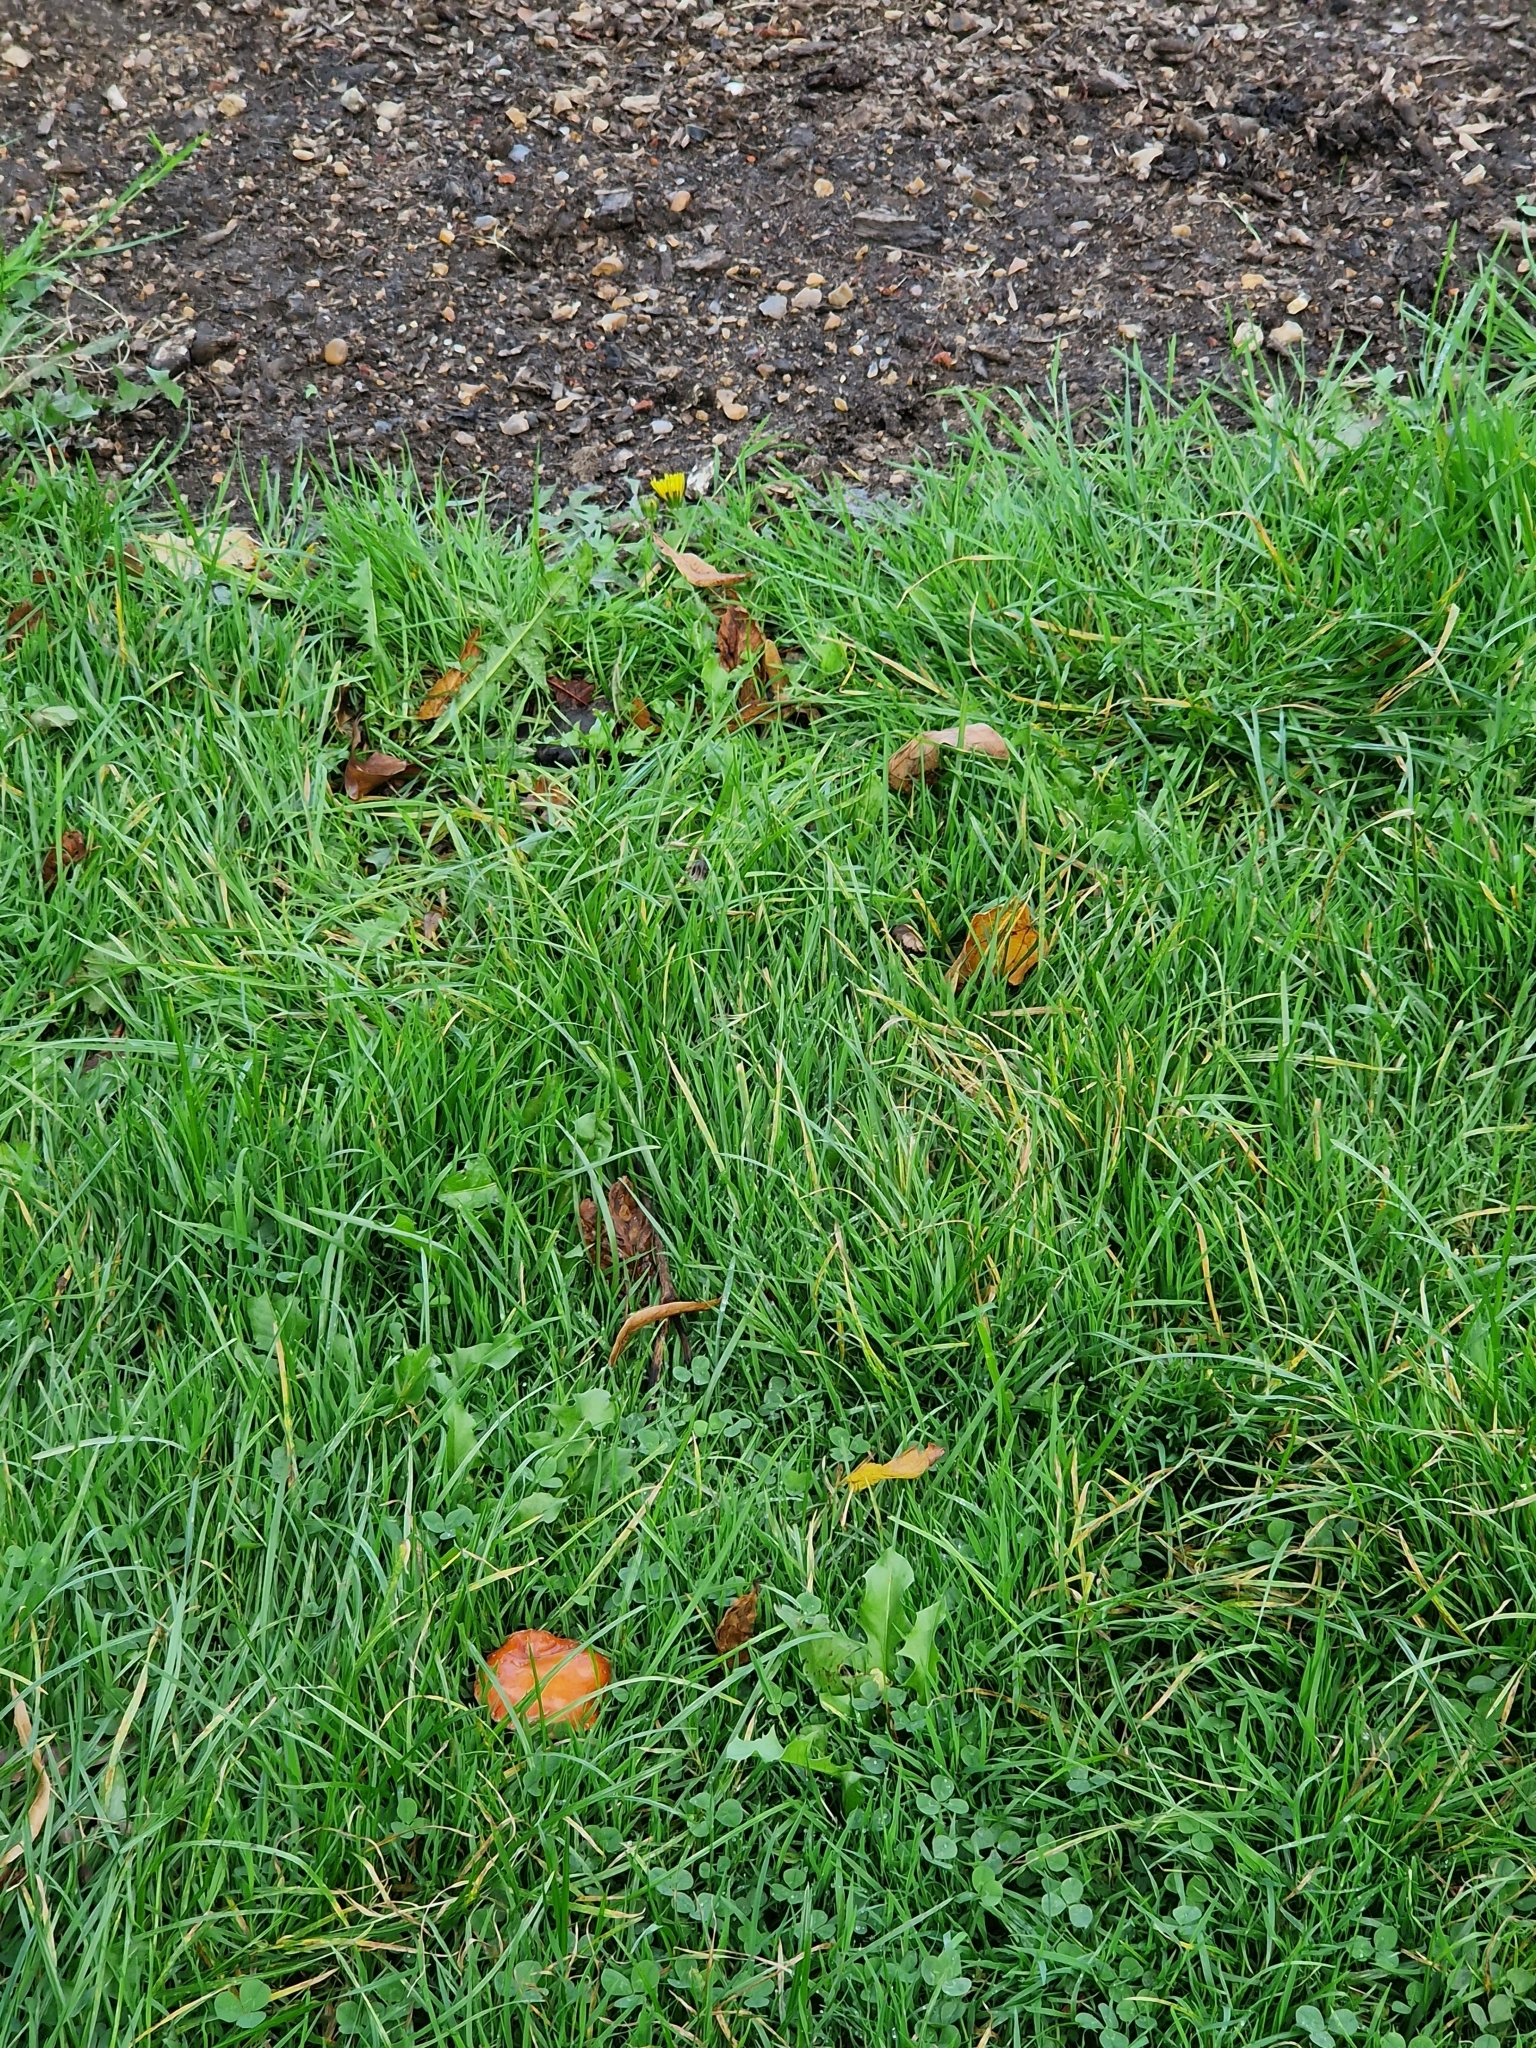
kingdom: Fungi
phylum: Basidiomycota
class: Agaricomycetes
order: Agaricales
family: Strophariaceae
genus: Leratiomyces
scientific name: Leratiomyces ceres
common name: Redlead roundhead
